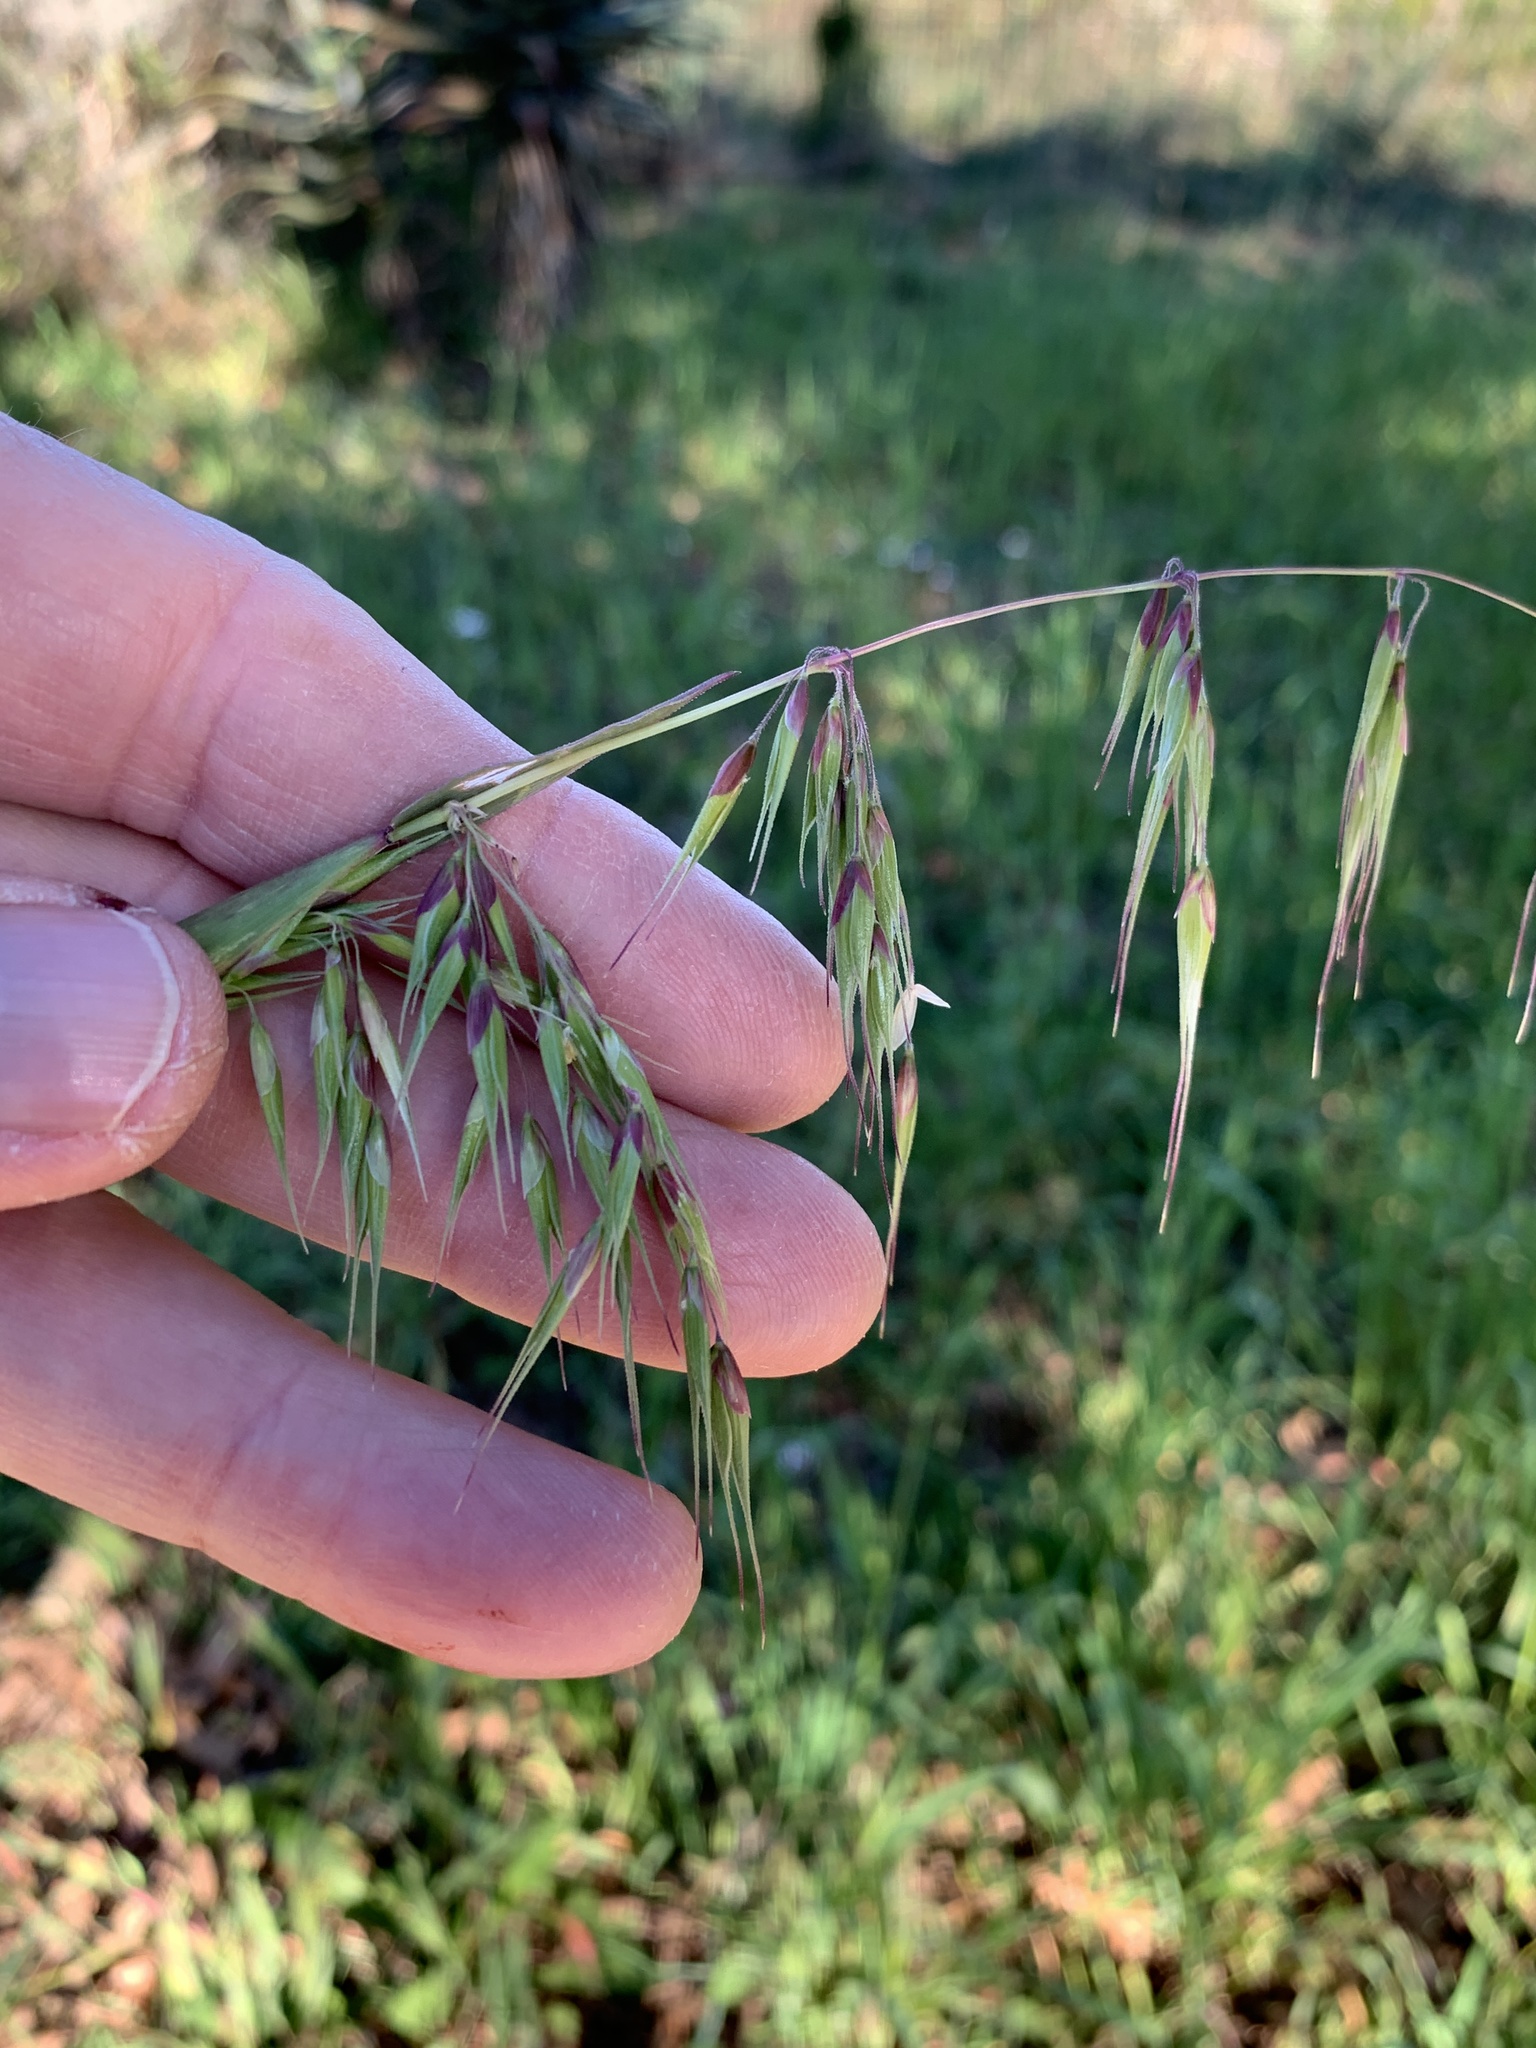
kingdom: Plantae
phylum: Tracheophyta
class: Liliopsida
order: Poales
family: Poaceae
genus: Ehrharta
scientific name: Ehrharta longiflora
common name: Longflowered veldtgrass
